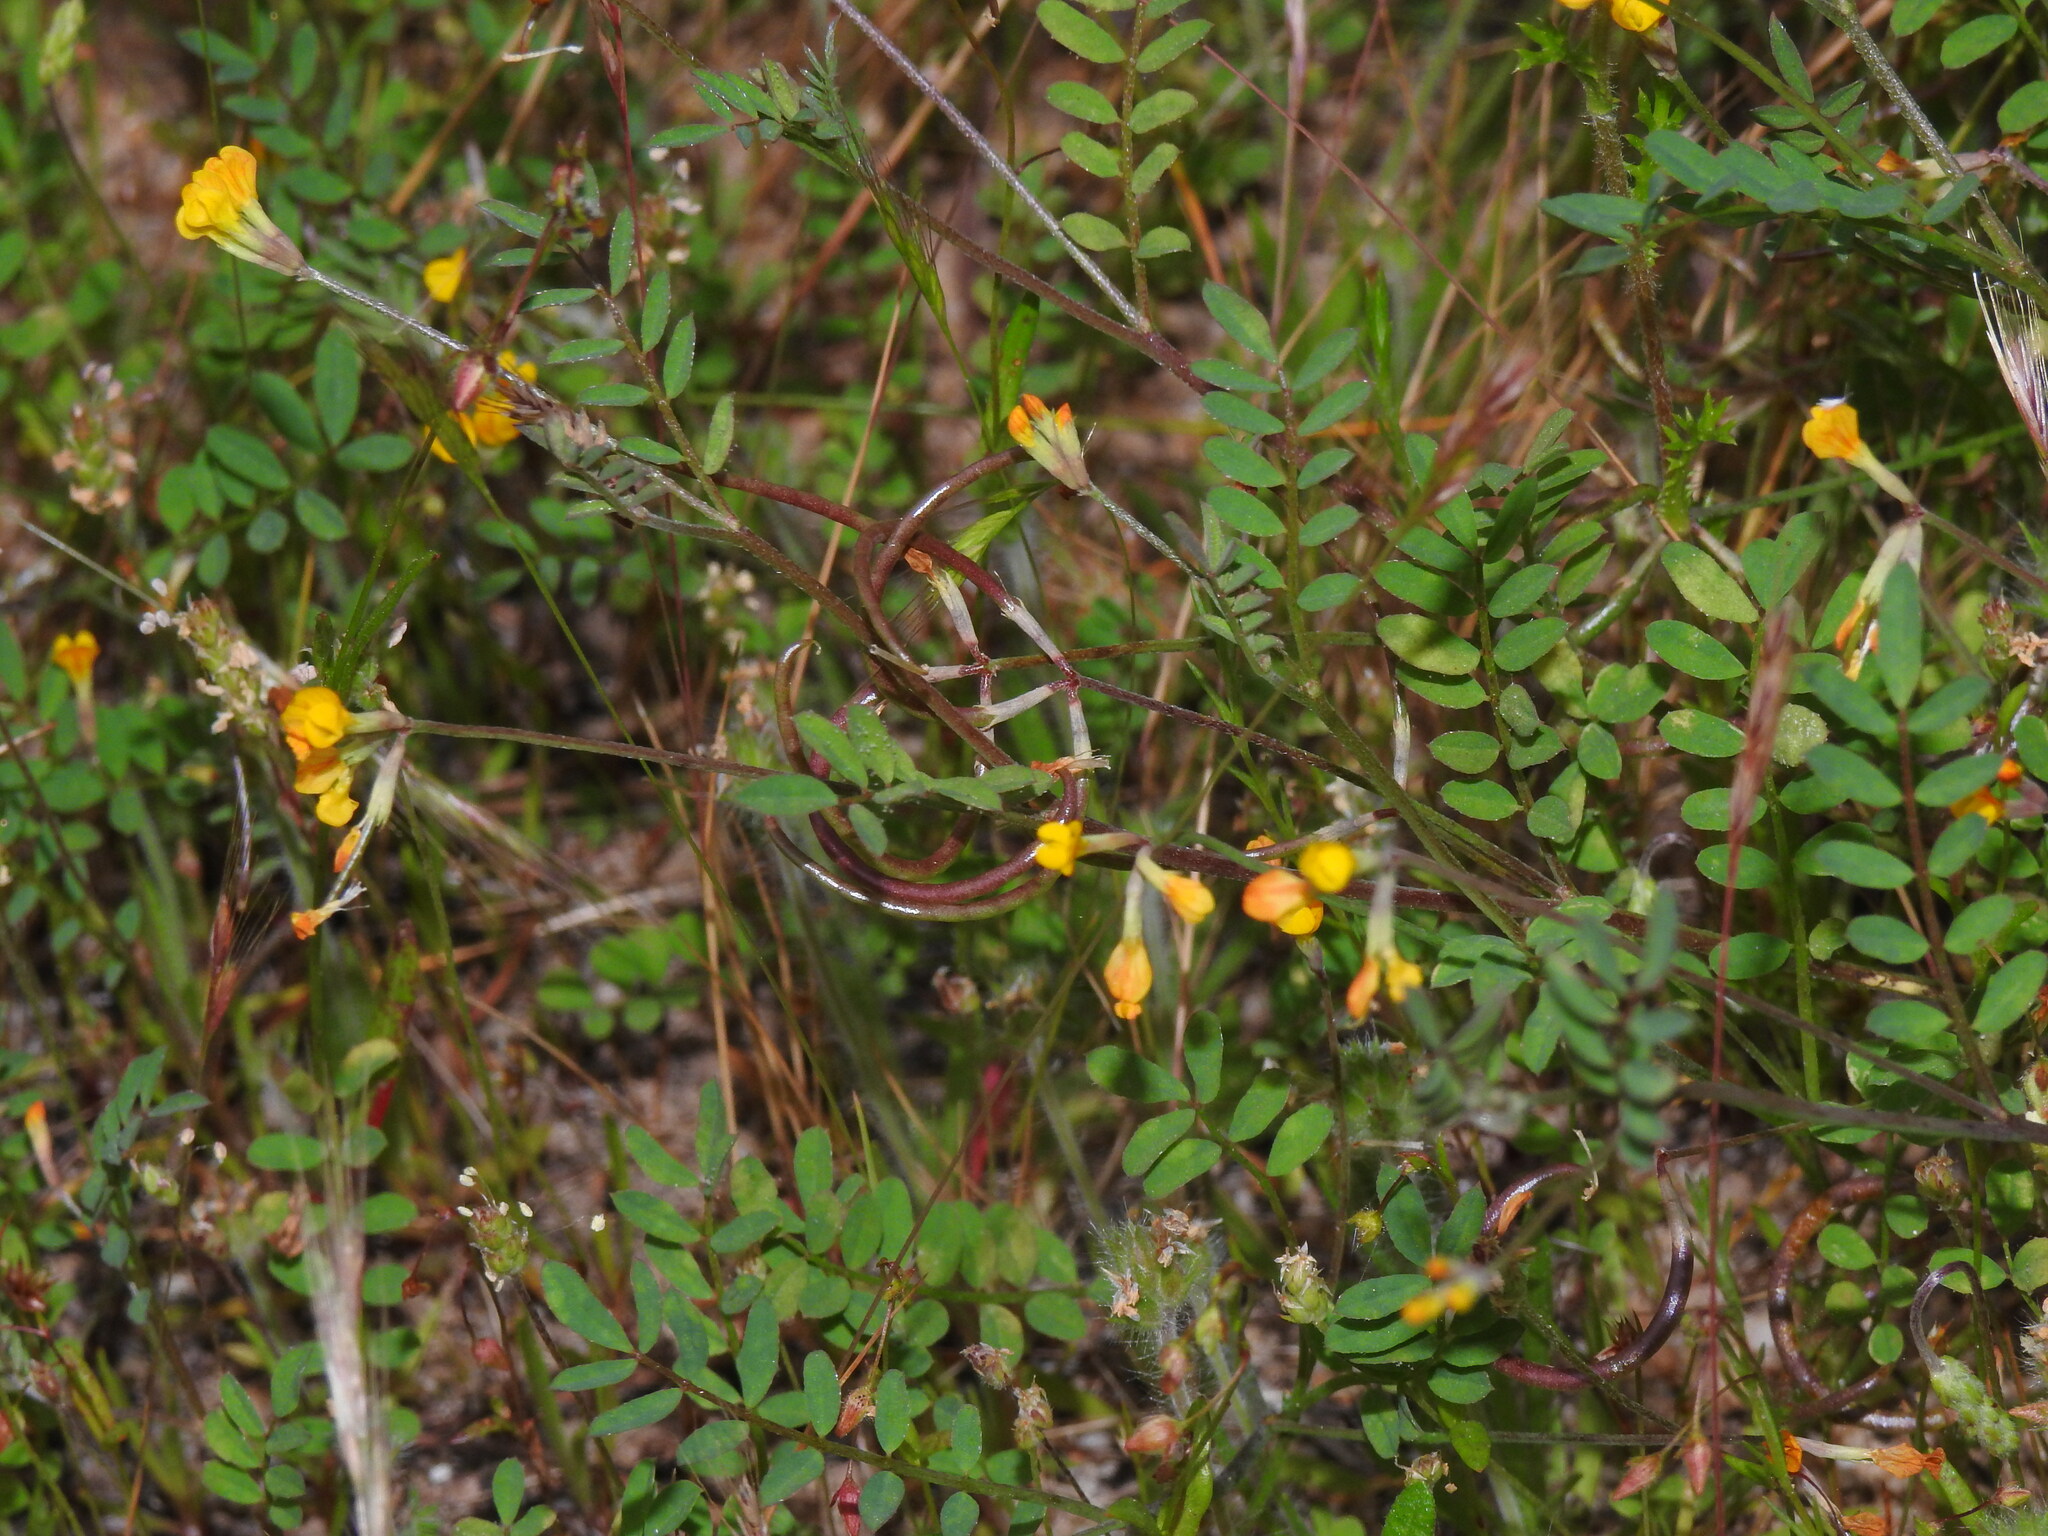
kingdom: Plantae
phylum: Tracheophyta
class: Magnoliopsida
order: Fabales
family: Fabaceae
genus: Ornithopus
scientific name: Ornithopus pinnatus
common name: Orange bird's-foot
